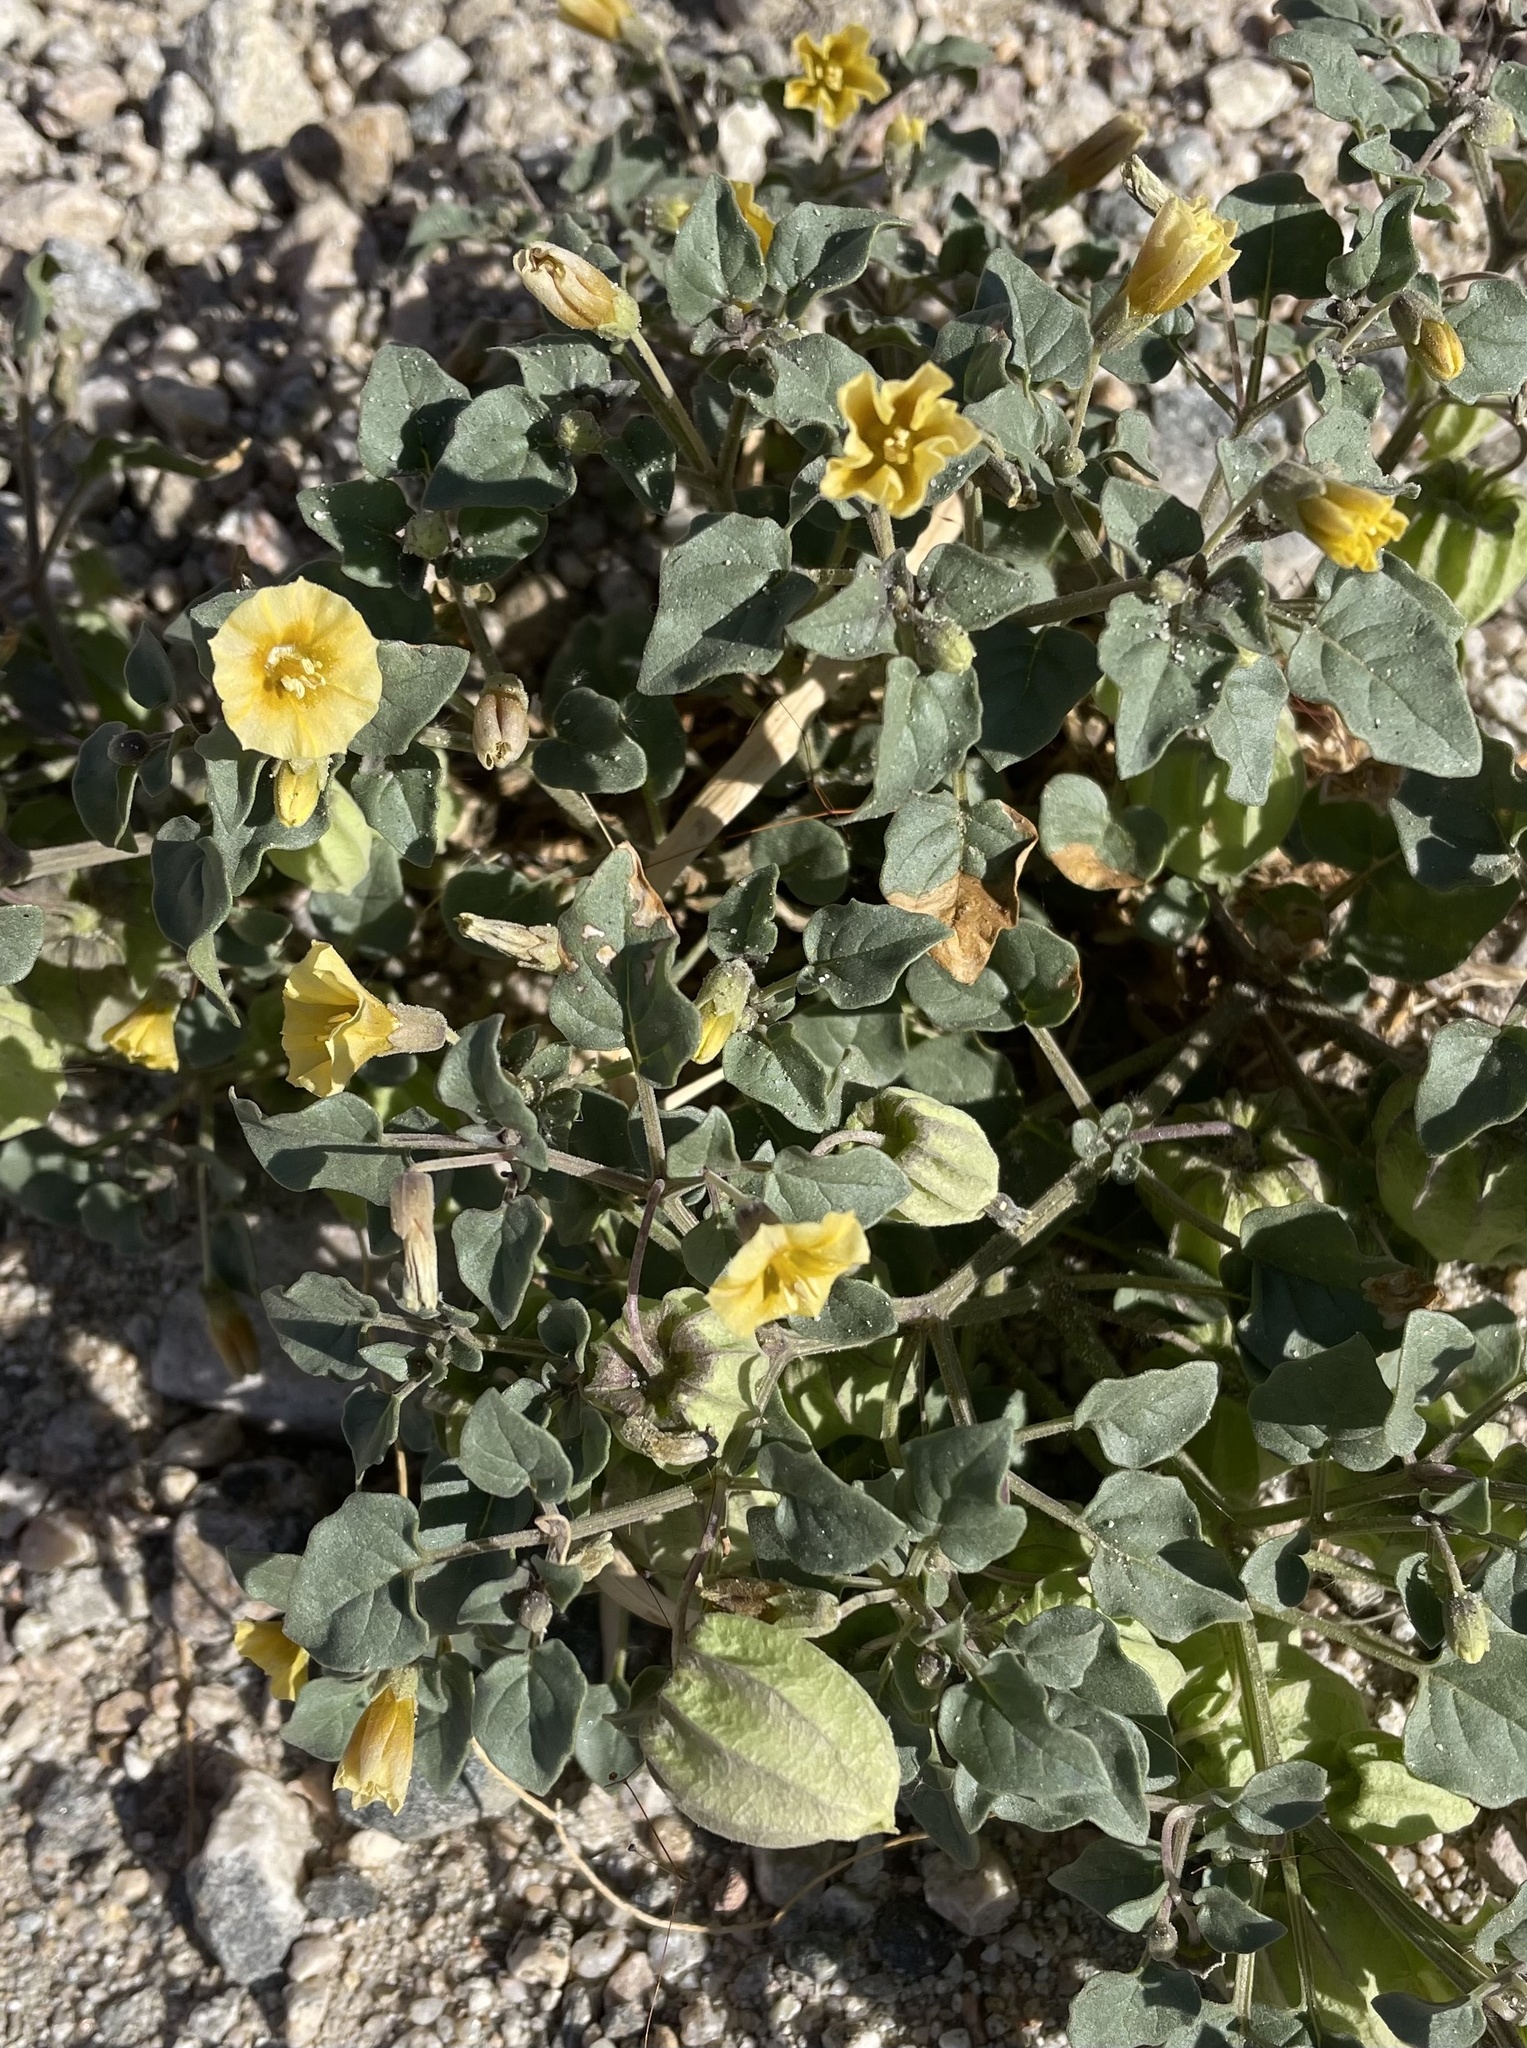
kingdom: Plantae
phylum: Tracheophyta
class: Magnoliopsida
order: Solanales
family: Solanaceae
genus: Physalis
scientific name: Physalis crassifolia
